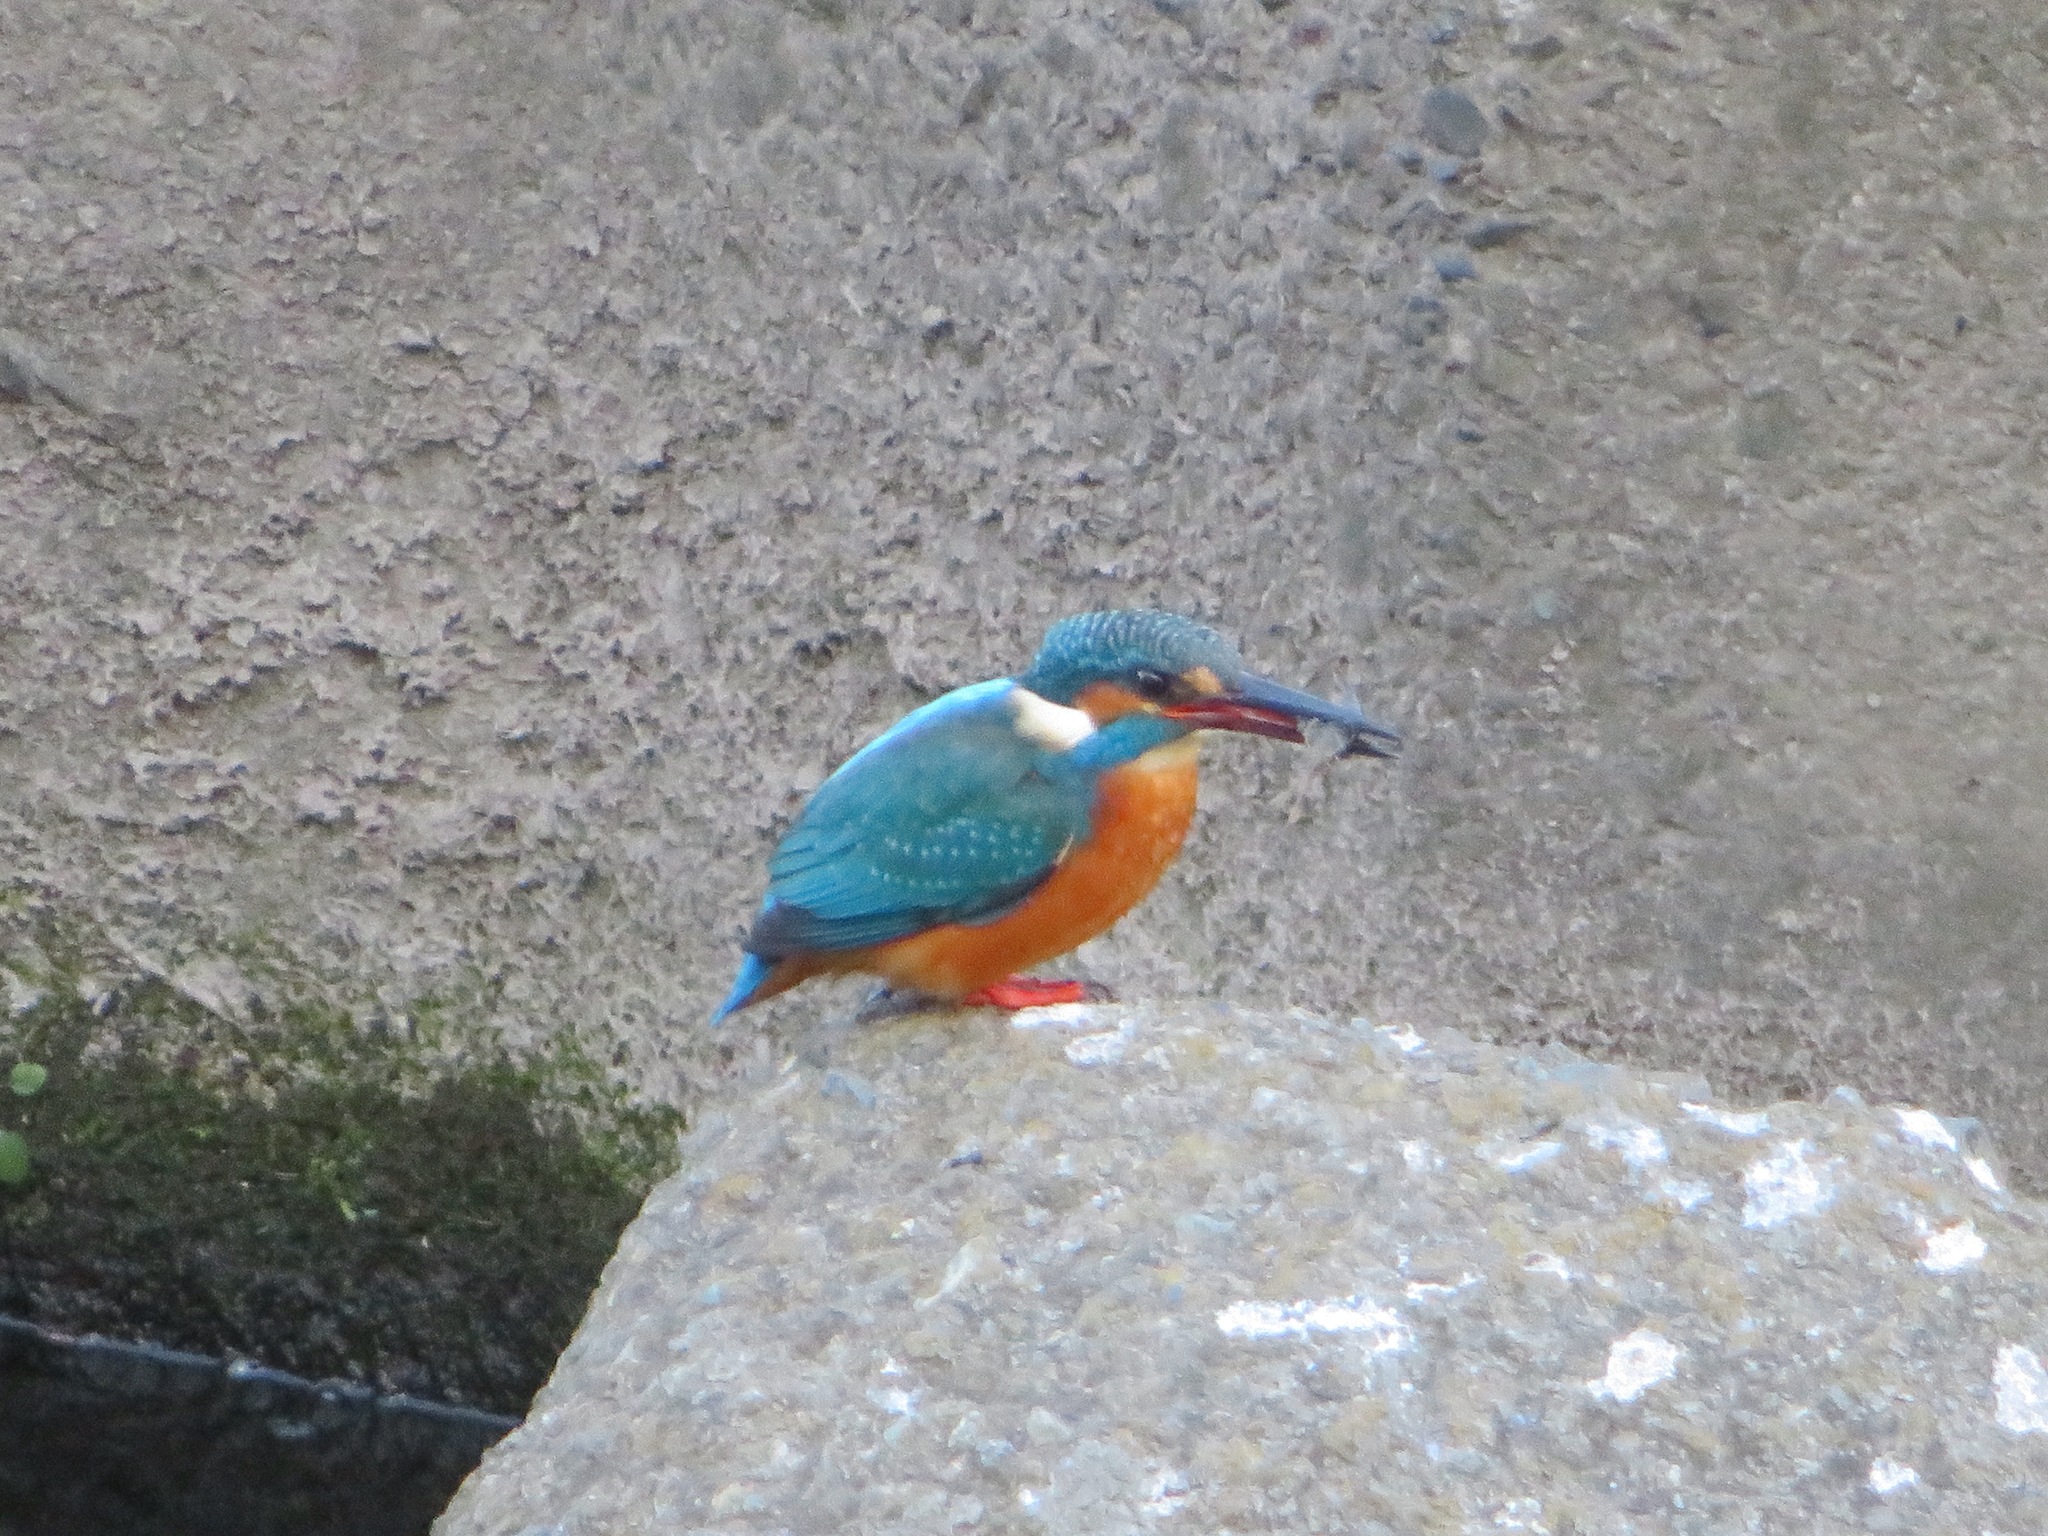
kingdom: Animalia
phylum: Chordata
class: Aves
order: Coraciiformes
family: Alcedinidae
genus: Alcedo
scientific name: Alcedo atthis
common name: Common kingfisher
